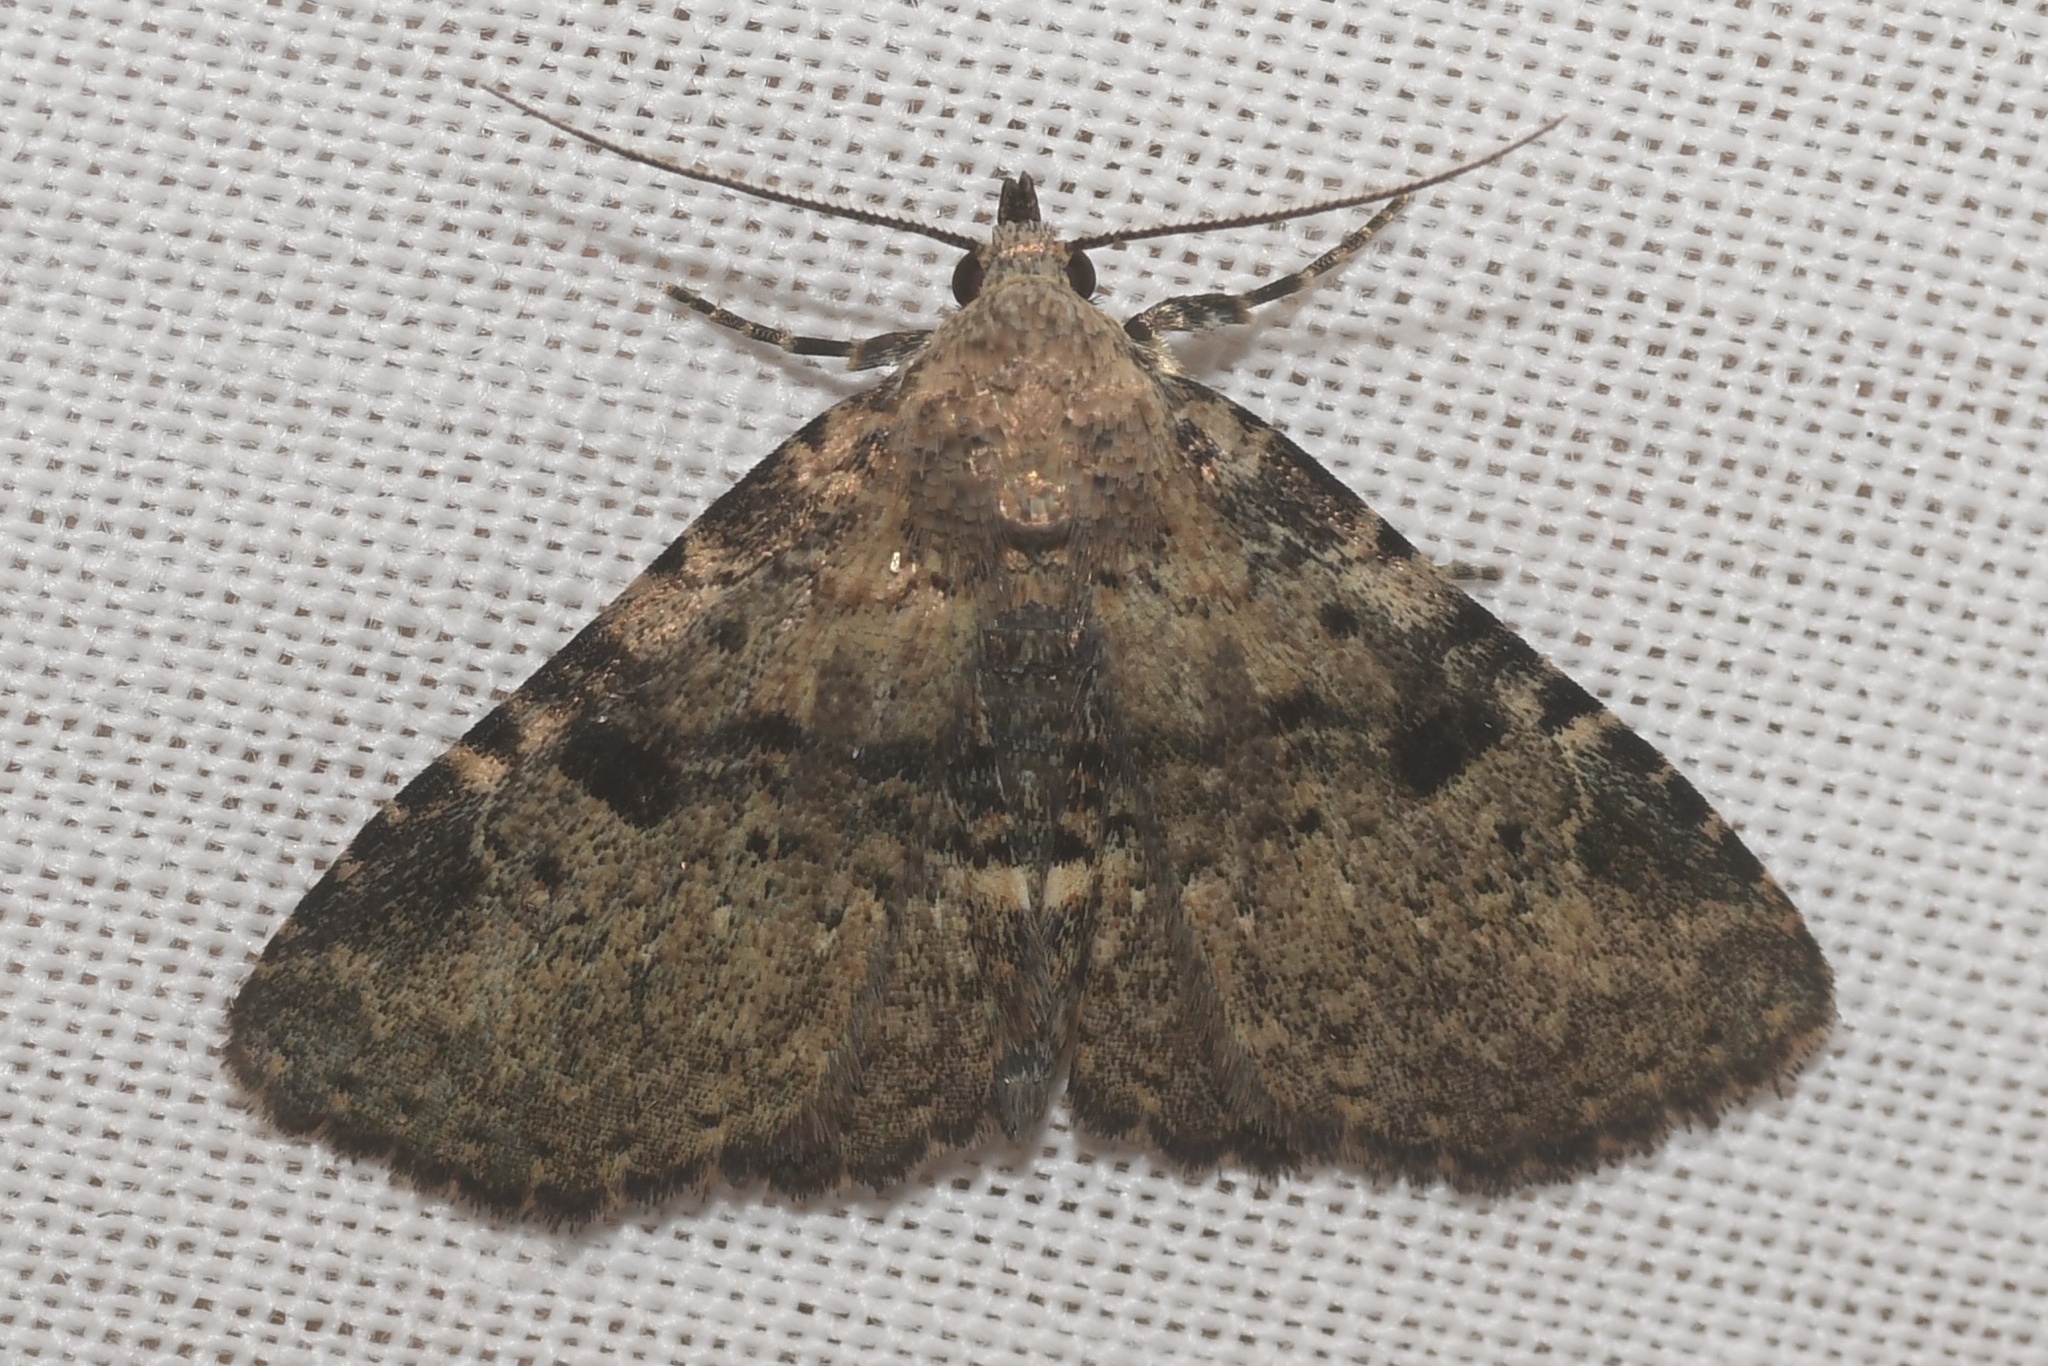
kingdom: Animalia
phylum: Arthropoda
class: Insecta
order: Lepidoptera
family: Erebidae
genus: Metalectra
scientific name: Metalectra quadrisignata
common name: Four-spotted fungus moth
